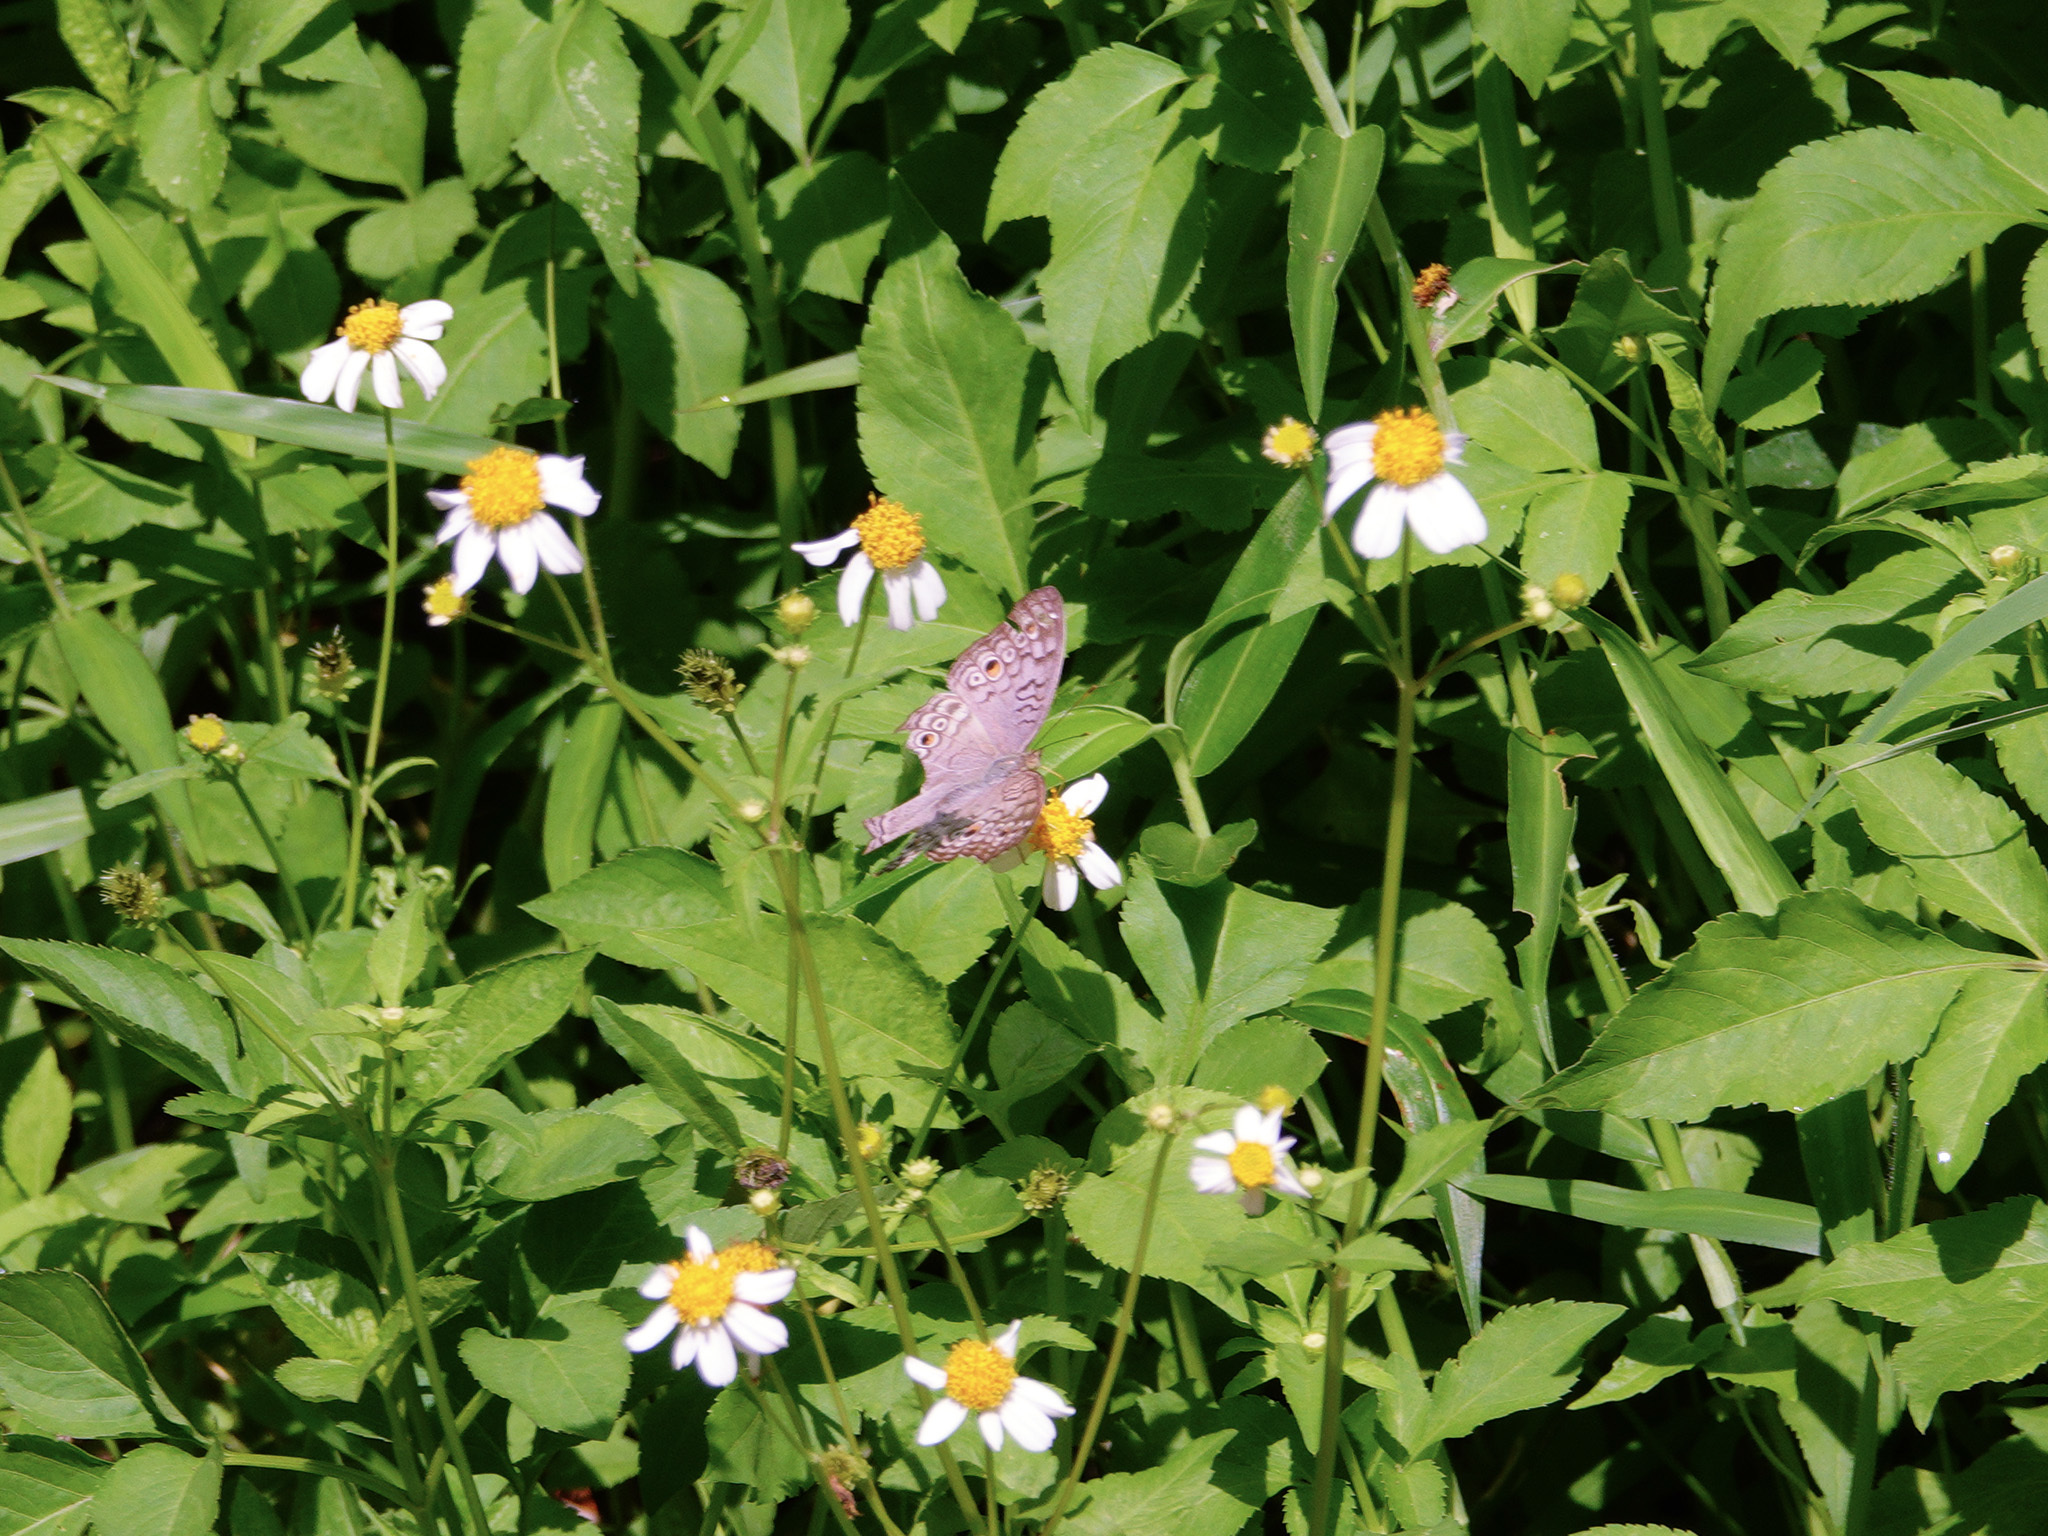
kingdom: Animalia
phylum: Arthropoda
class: Insecta
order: Lepidoptera
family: Nymphalidae
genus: Junonia
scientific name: Junonia atlites
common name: Grey pansy
